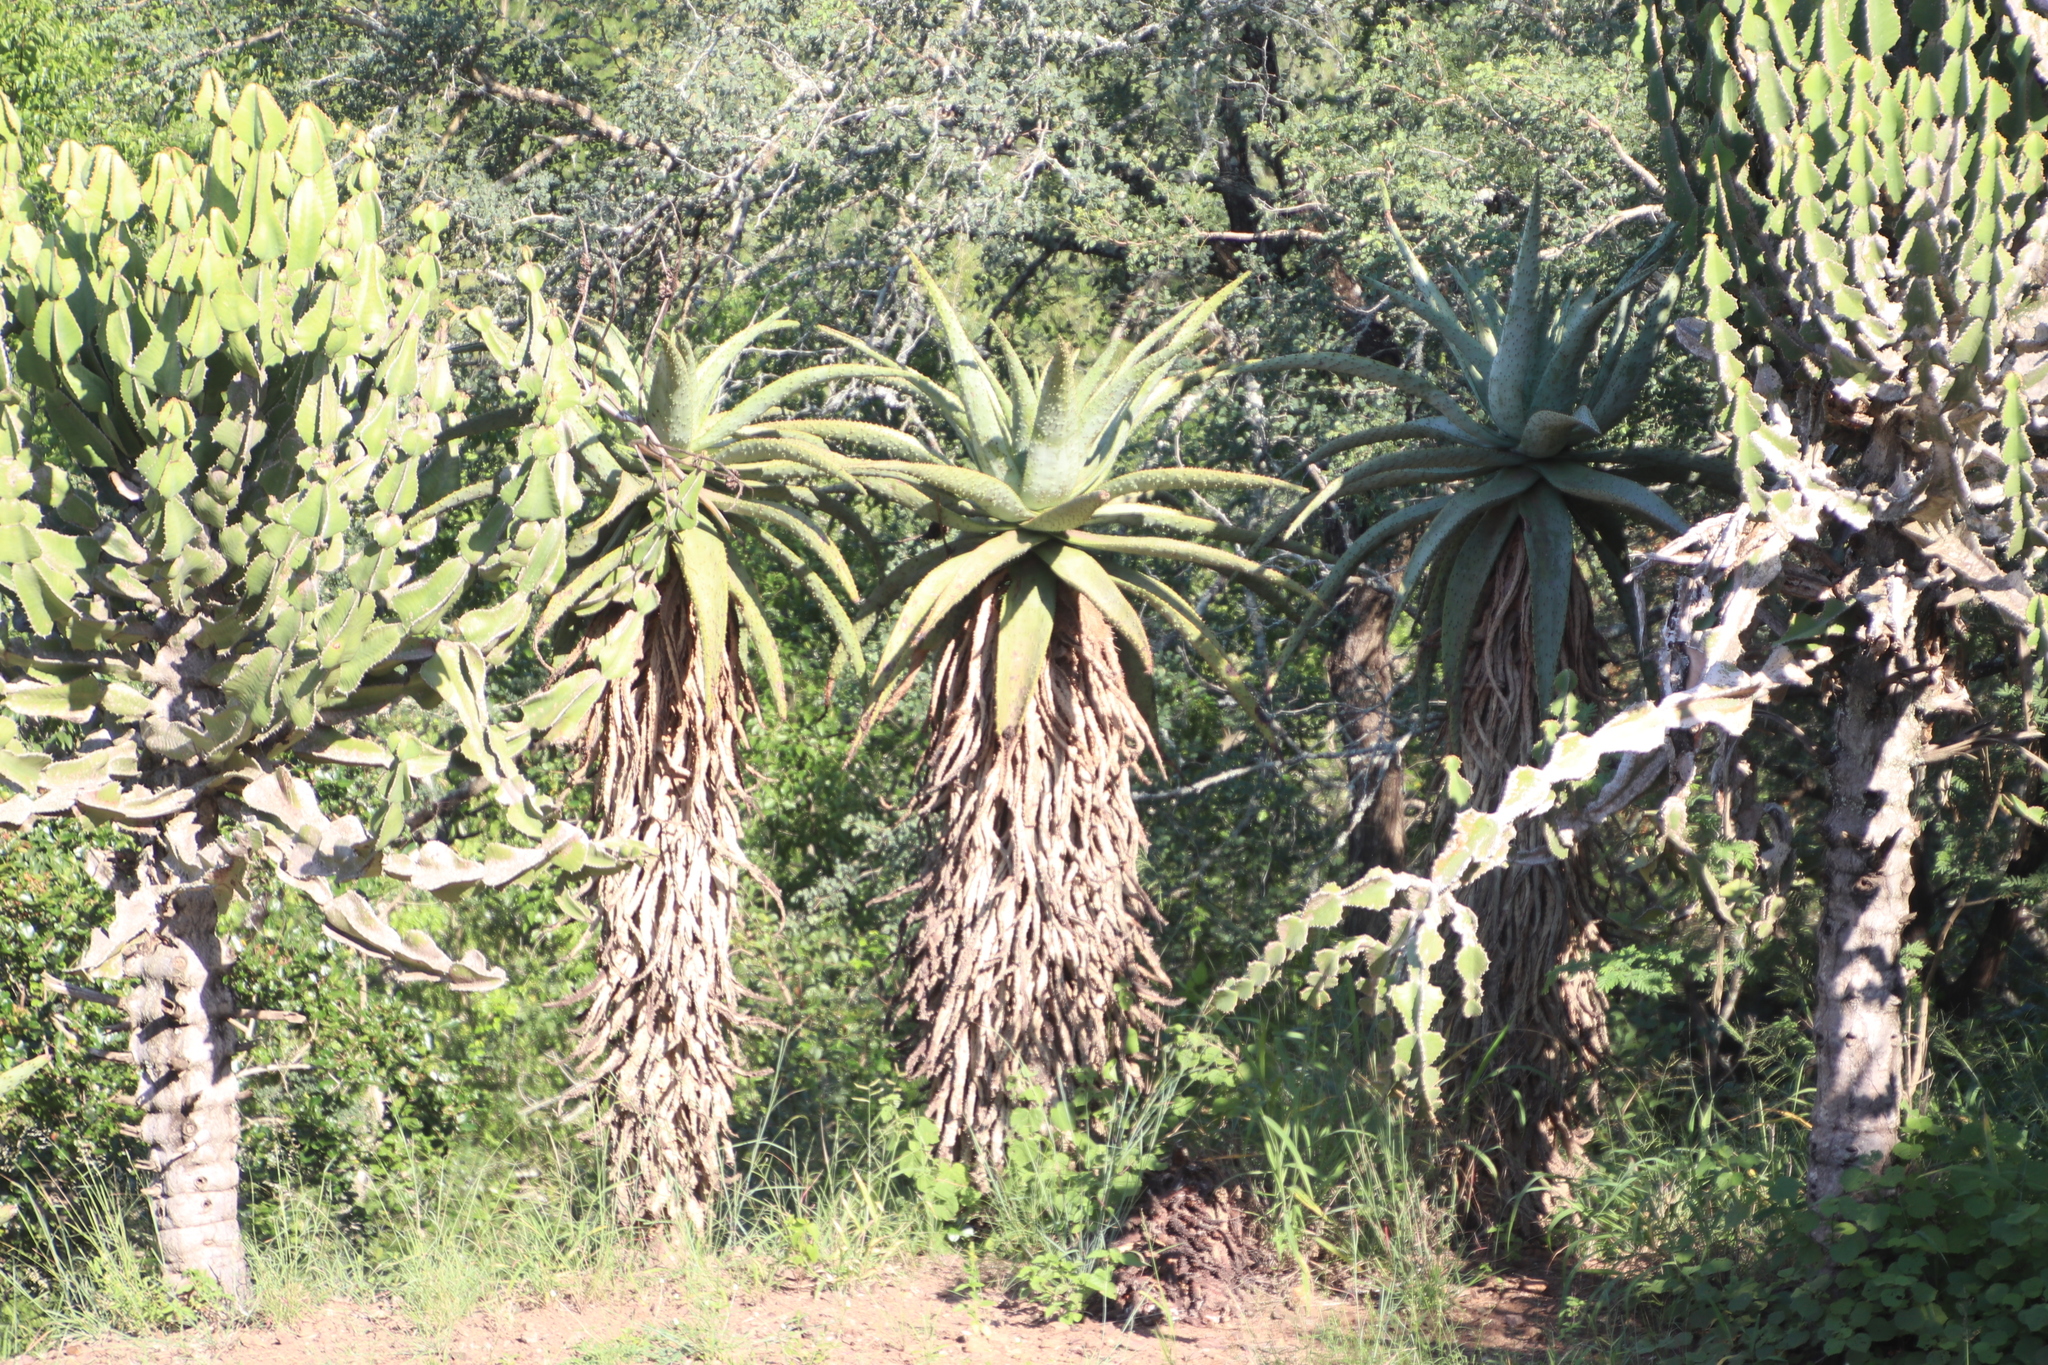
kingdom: Plantae
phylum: Tracheophyta
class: Liliopsida
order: Asparagales
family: Asphodelaceae
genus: Aloe
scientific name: Aloe marlothii
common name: Flat-flowered aloe
